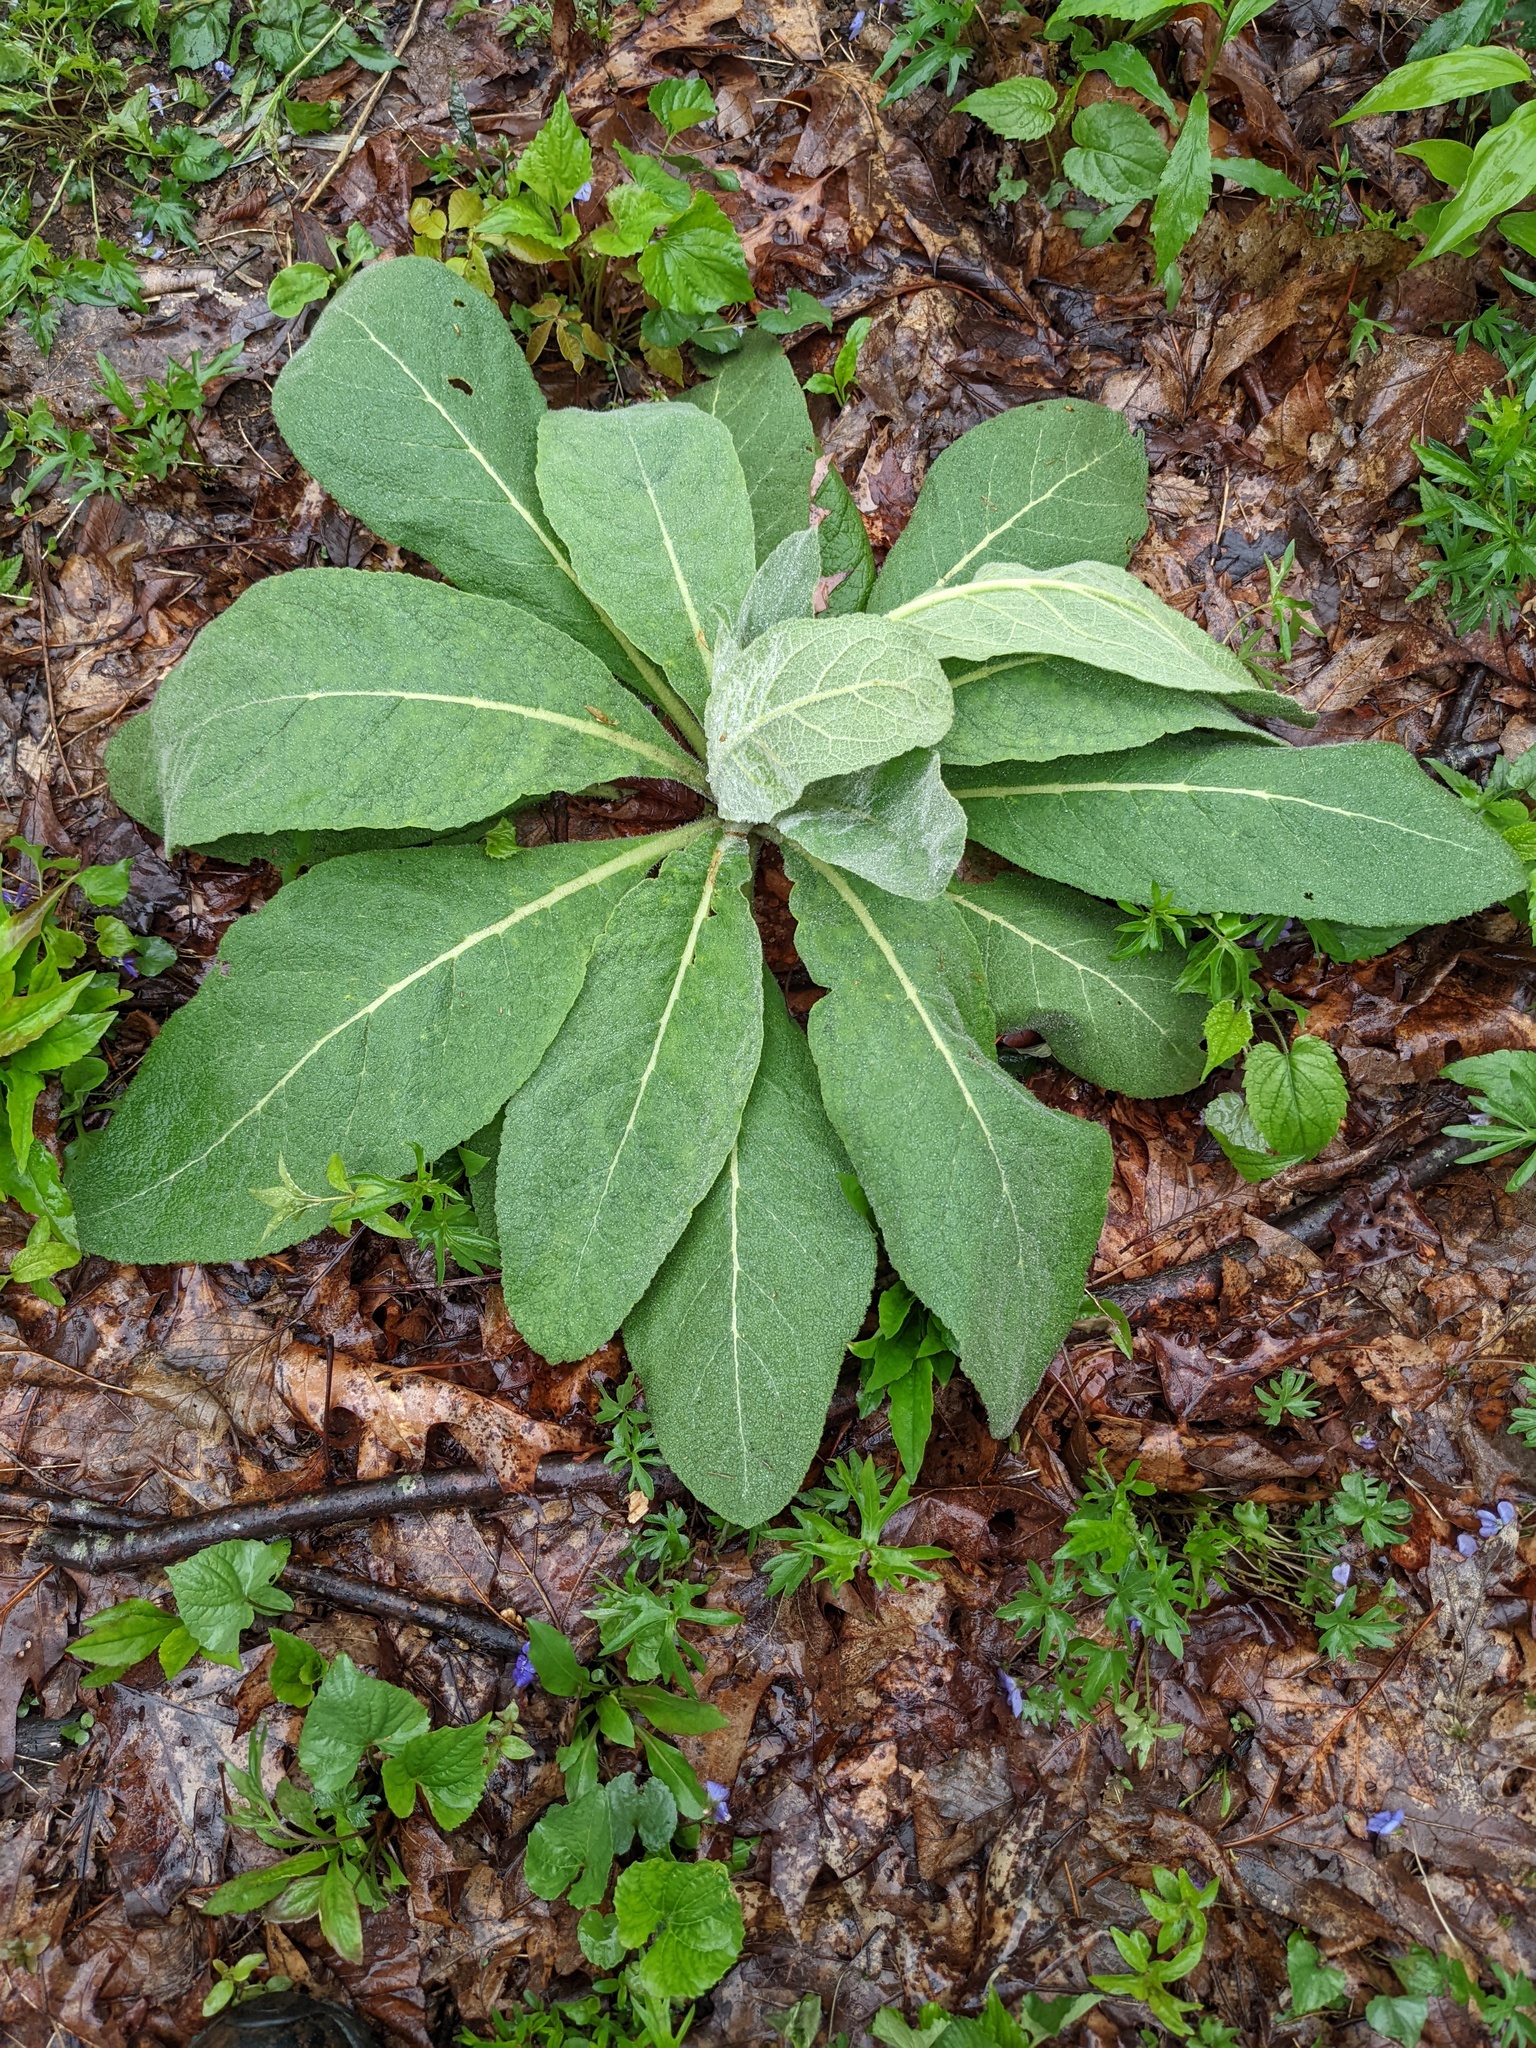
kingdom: Plantae
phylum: Tracheophyta
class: Magnoliopsida
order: Lamiales
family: Scrophulariaceae
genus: Verbascum
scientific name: Verbascum thapsus
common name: Common mullein
